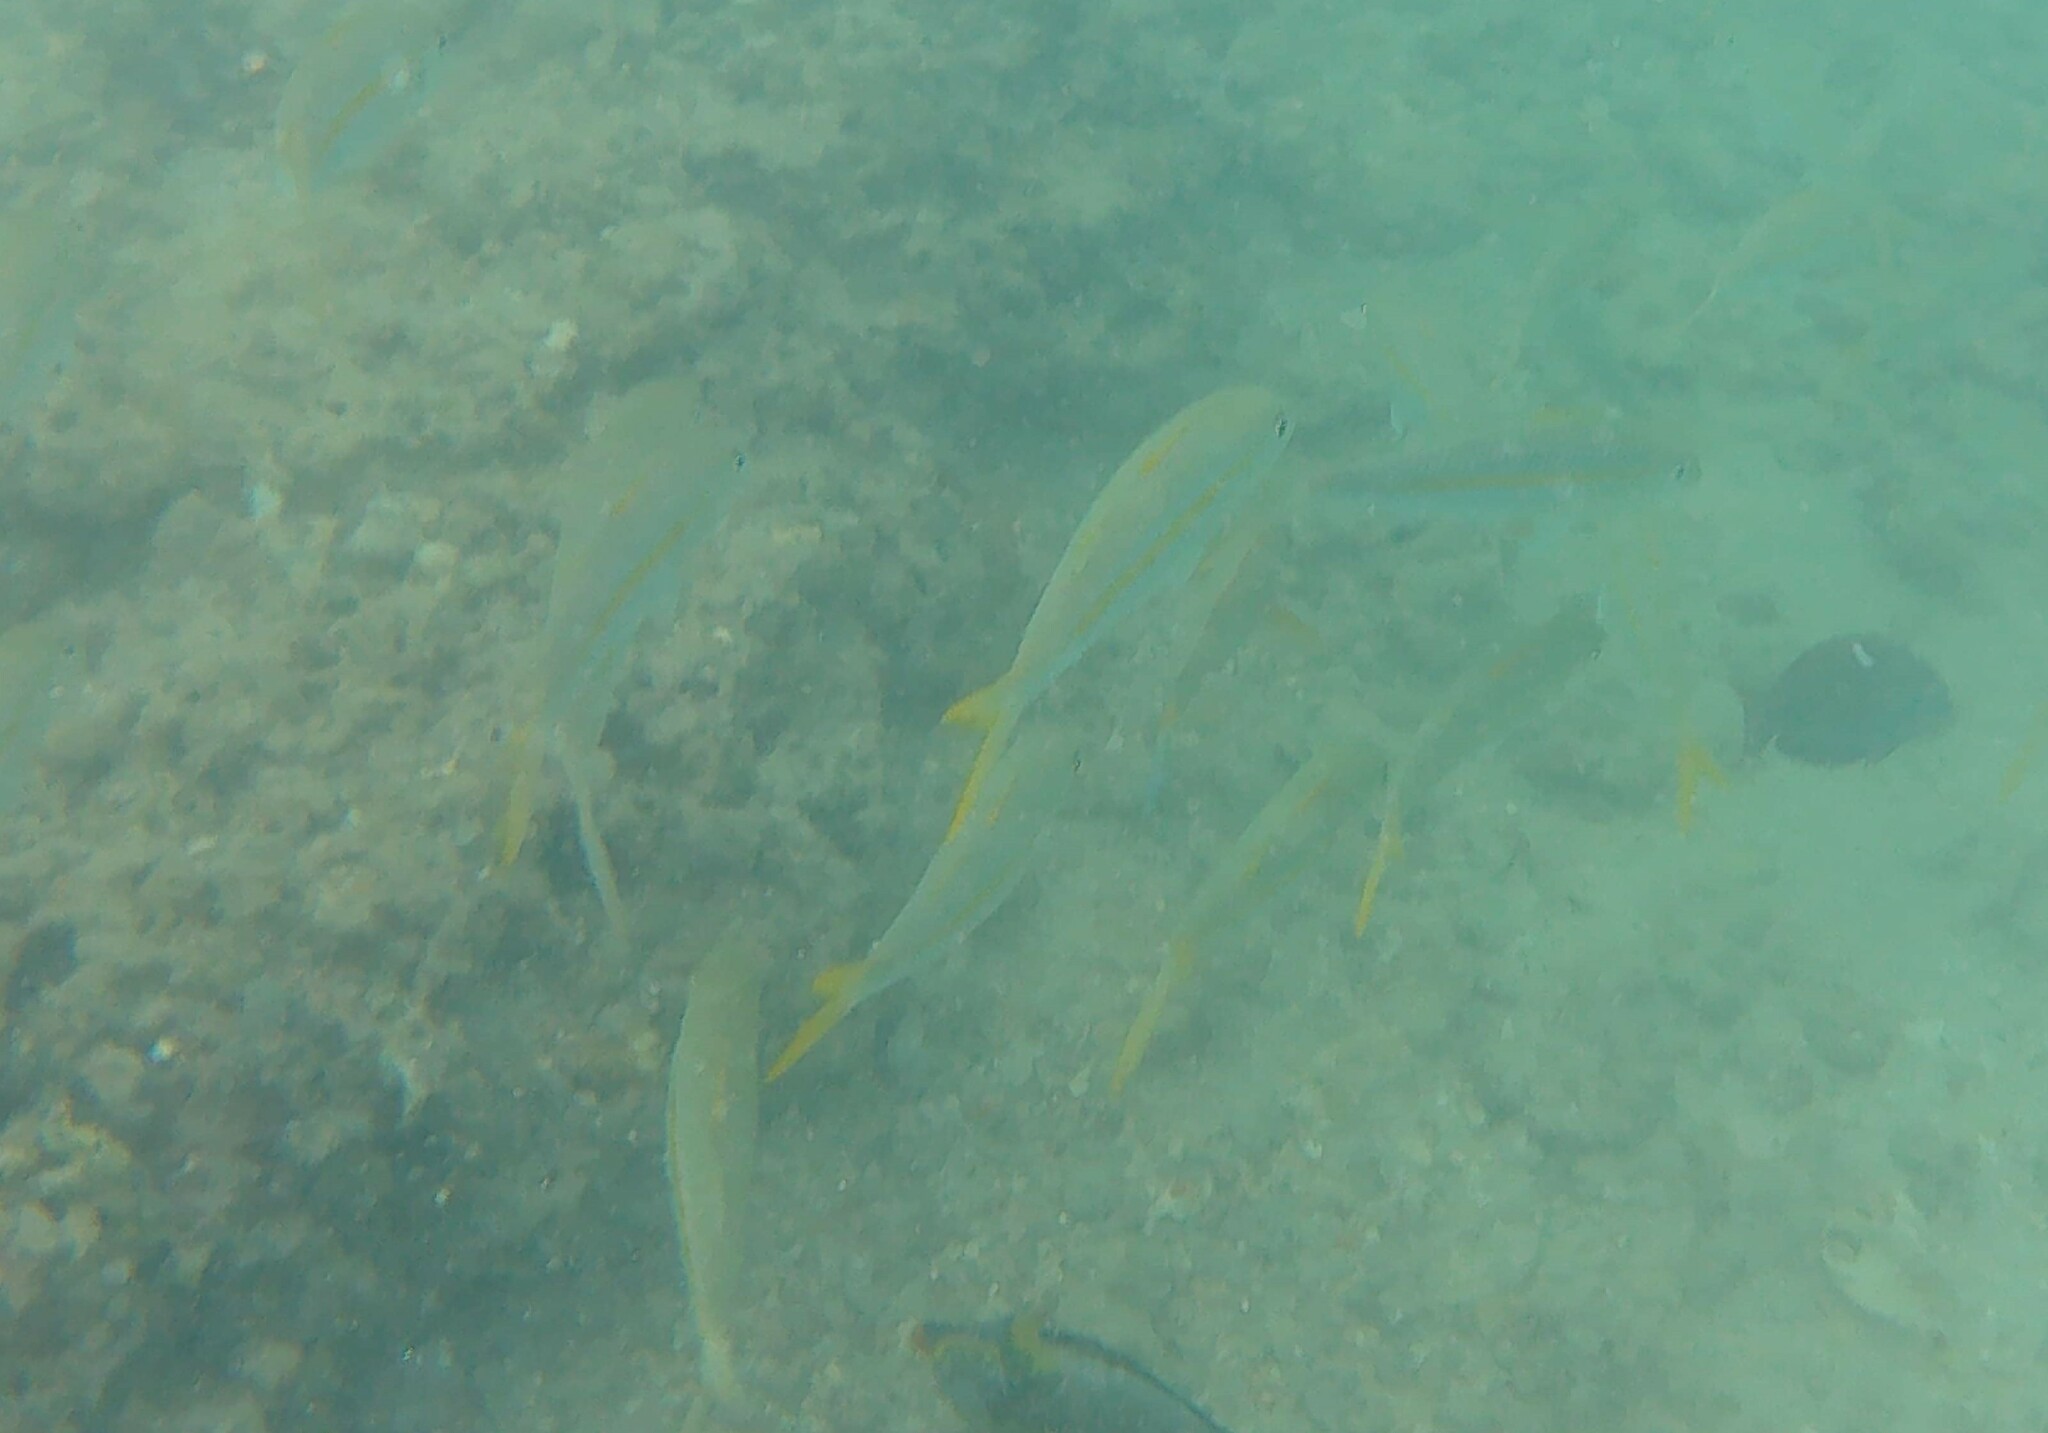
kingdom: Animalia
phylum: Chordata
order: Perciformes
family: Mullidae
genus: Mulloidichthys
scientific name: Mulloidichthys vanicolensis
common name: Yellowfin goatfish
